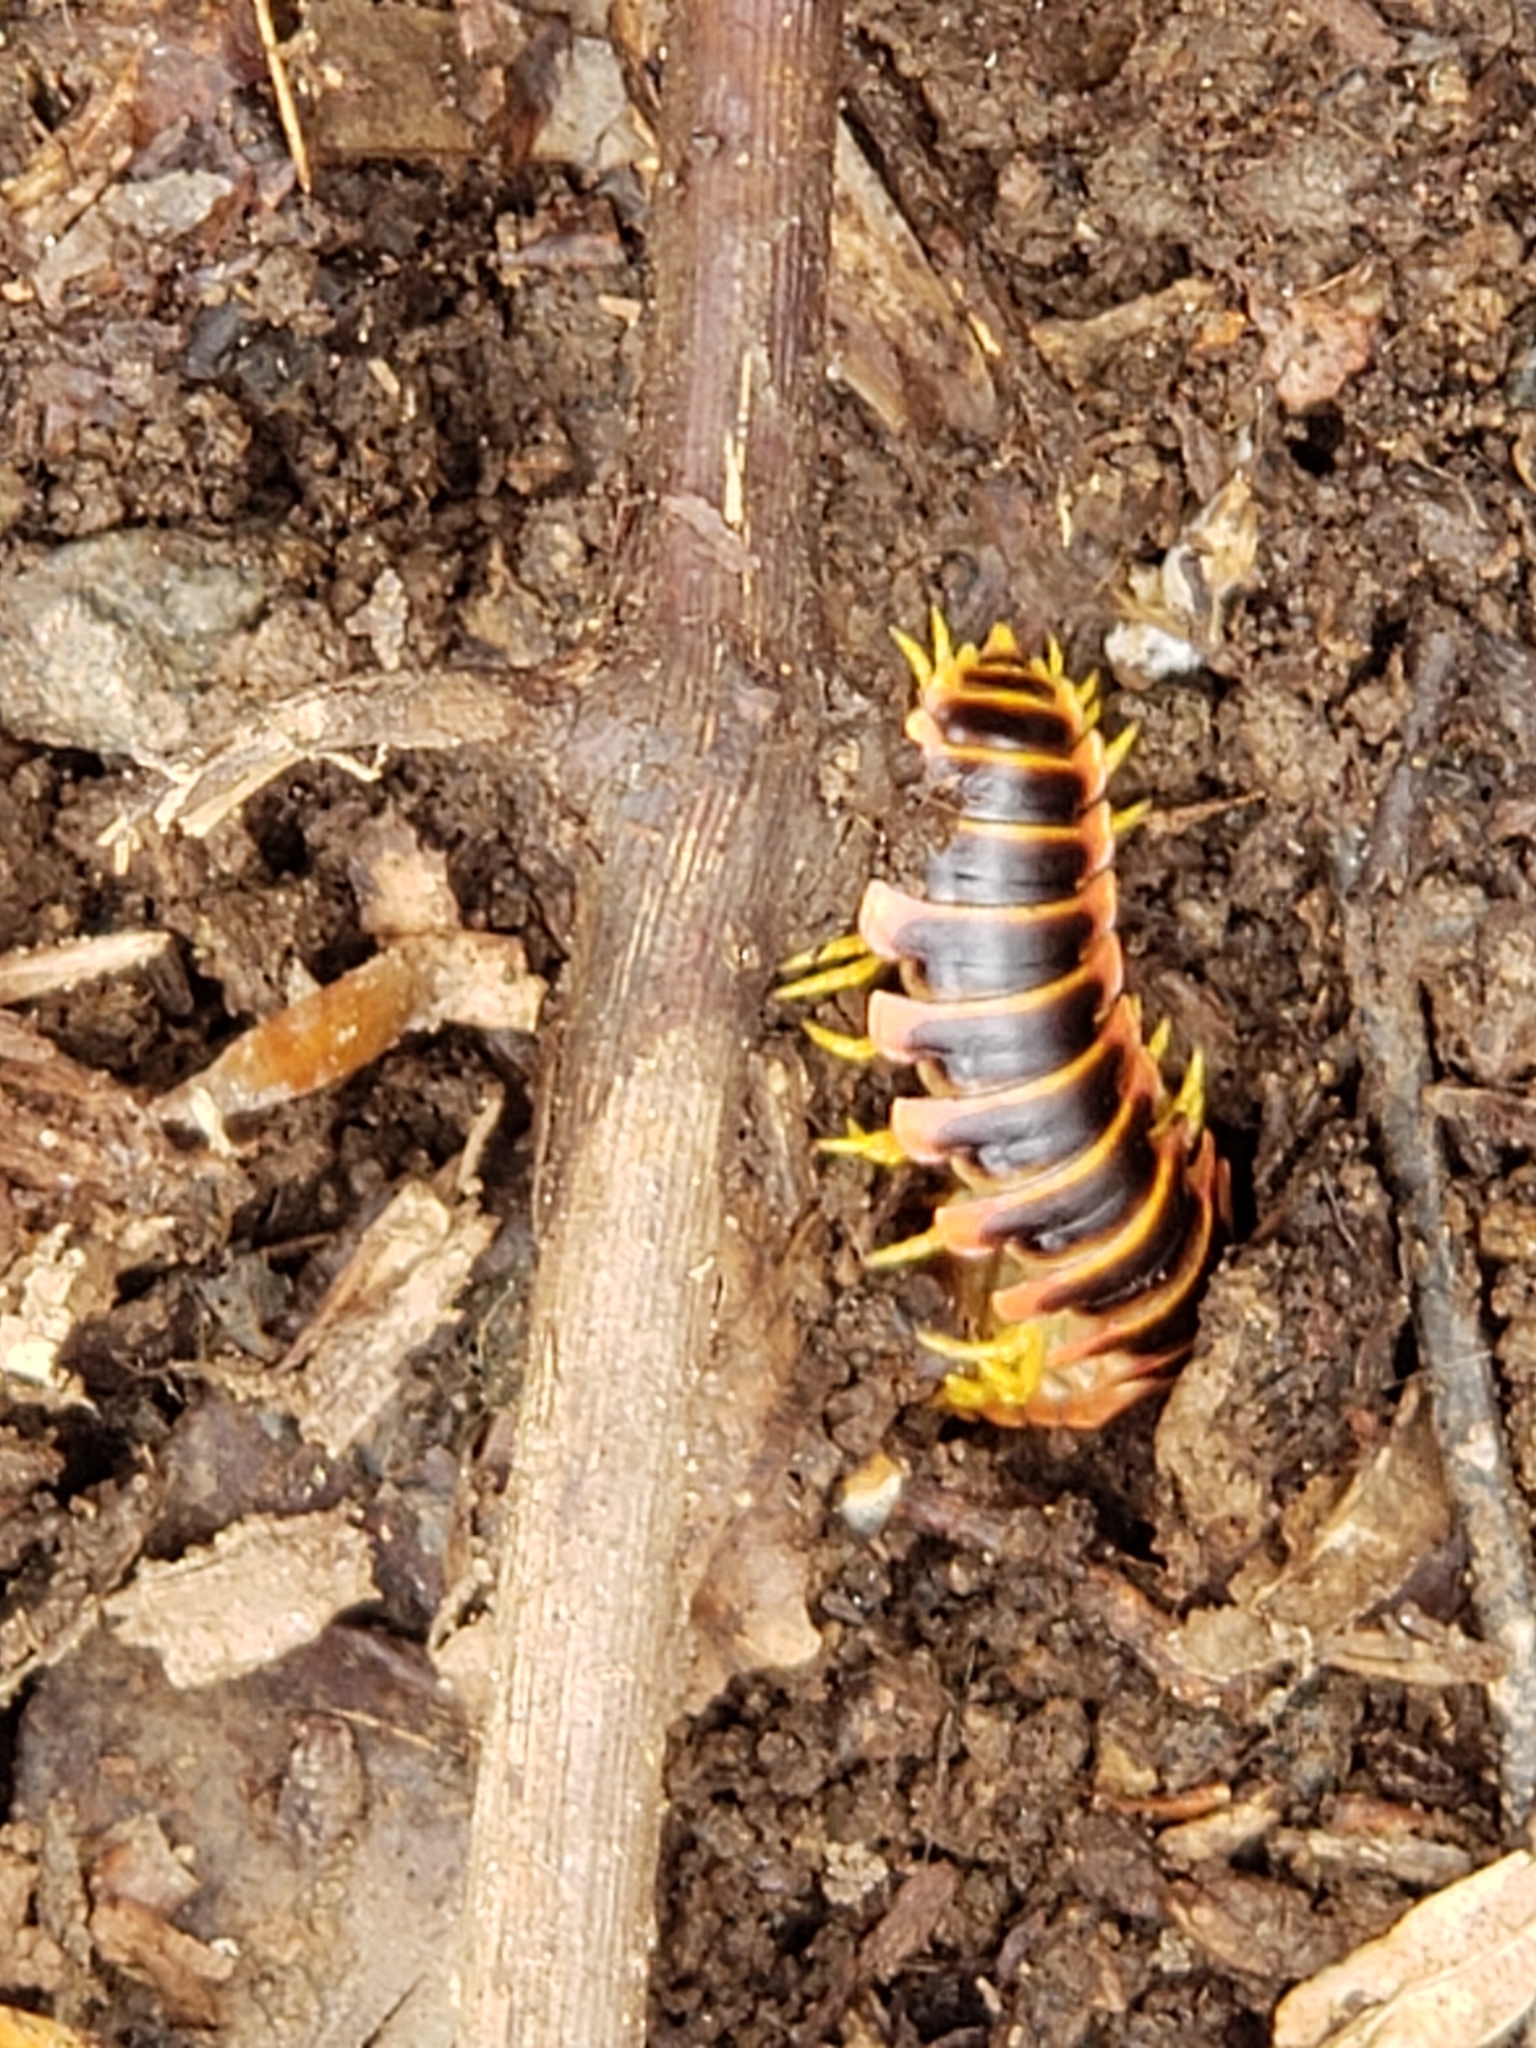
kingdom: Animalia
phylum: Arthropoda
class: Diplopoda
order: Polydesmida
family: Xystodesmidae
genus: Apheloria
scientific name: Apheloria virginiensis
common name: Black-and-gold flat millipede
